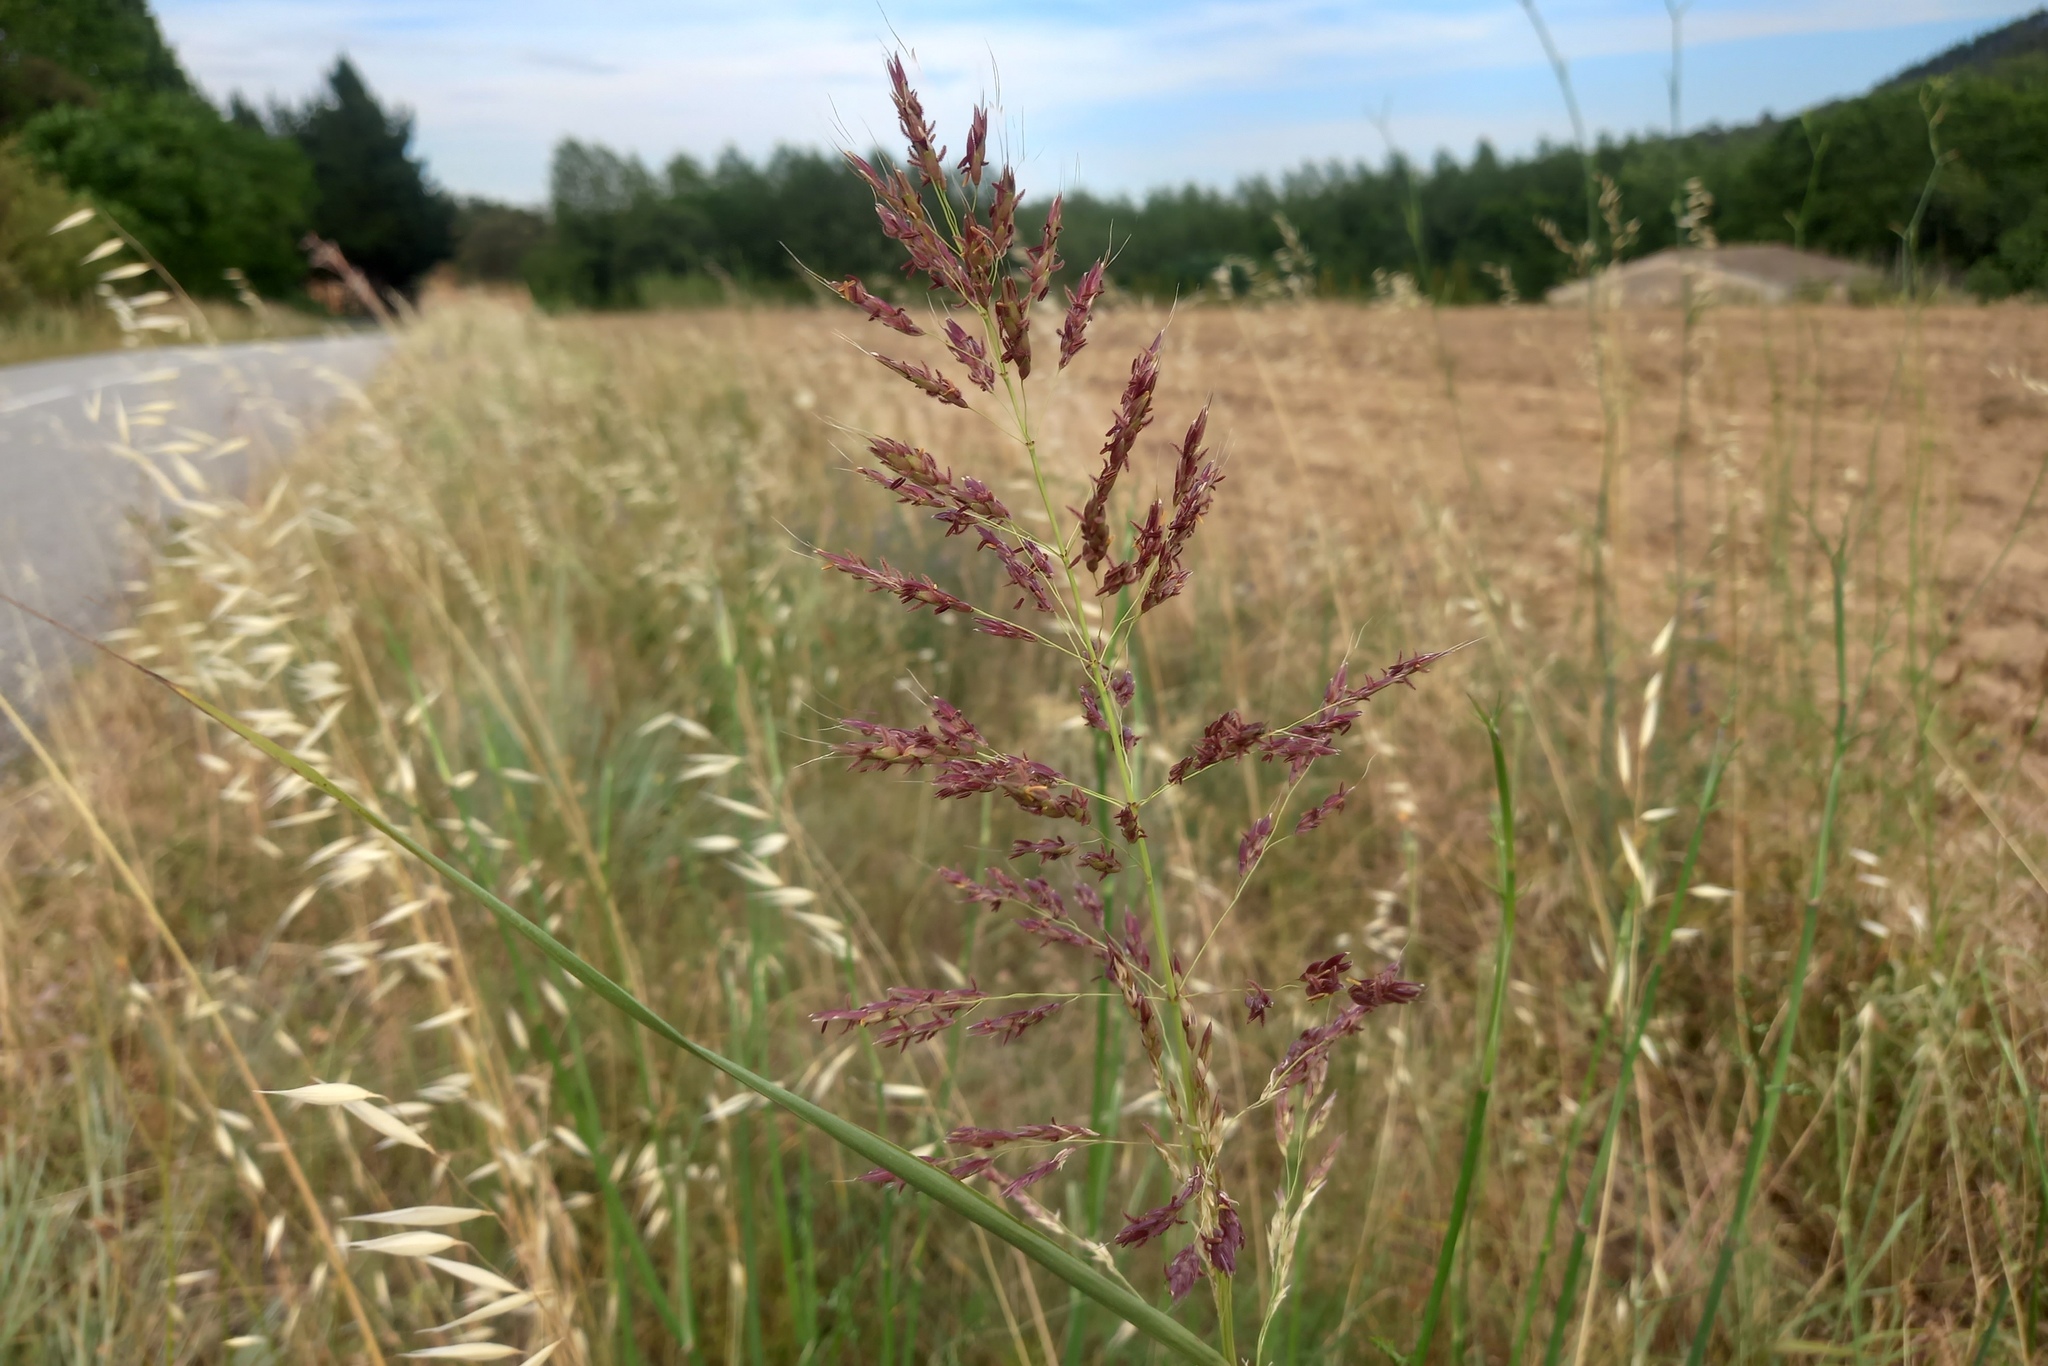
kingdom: Plantae
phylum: Tracheophyta
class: Liliopsida
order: Poales
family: Poaceae
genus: Sorghum
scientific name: Sorghum halepense
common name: Johnson-grass
